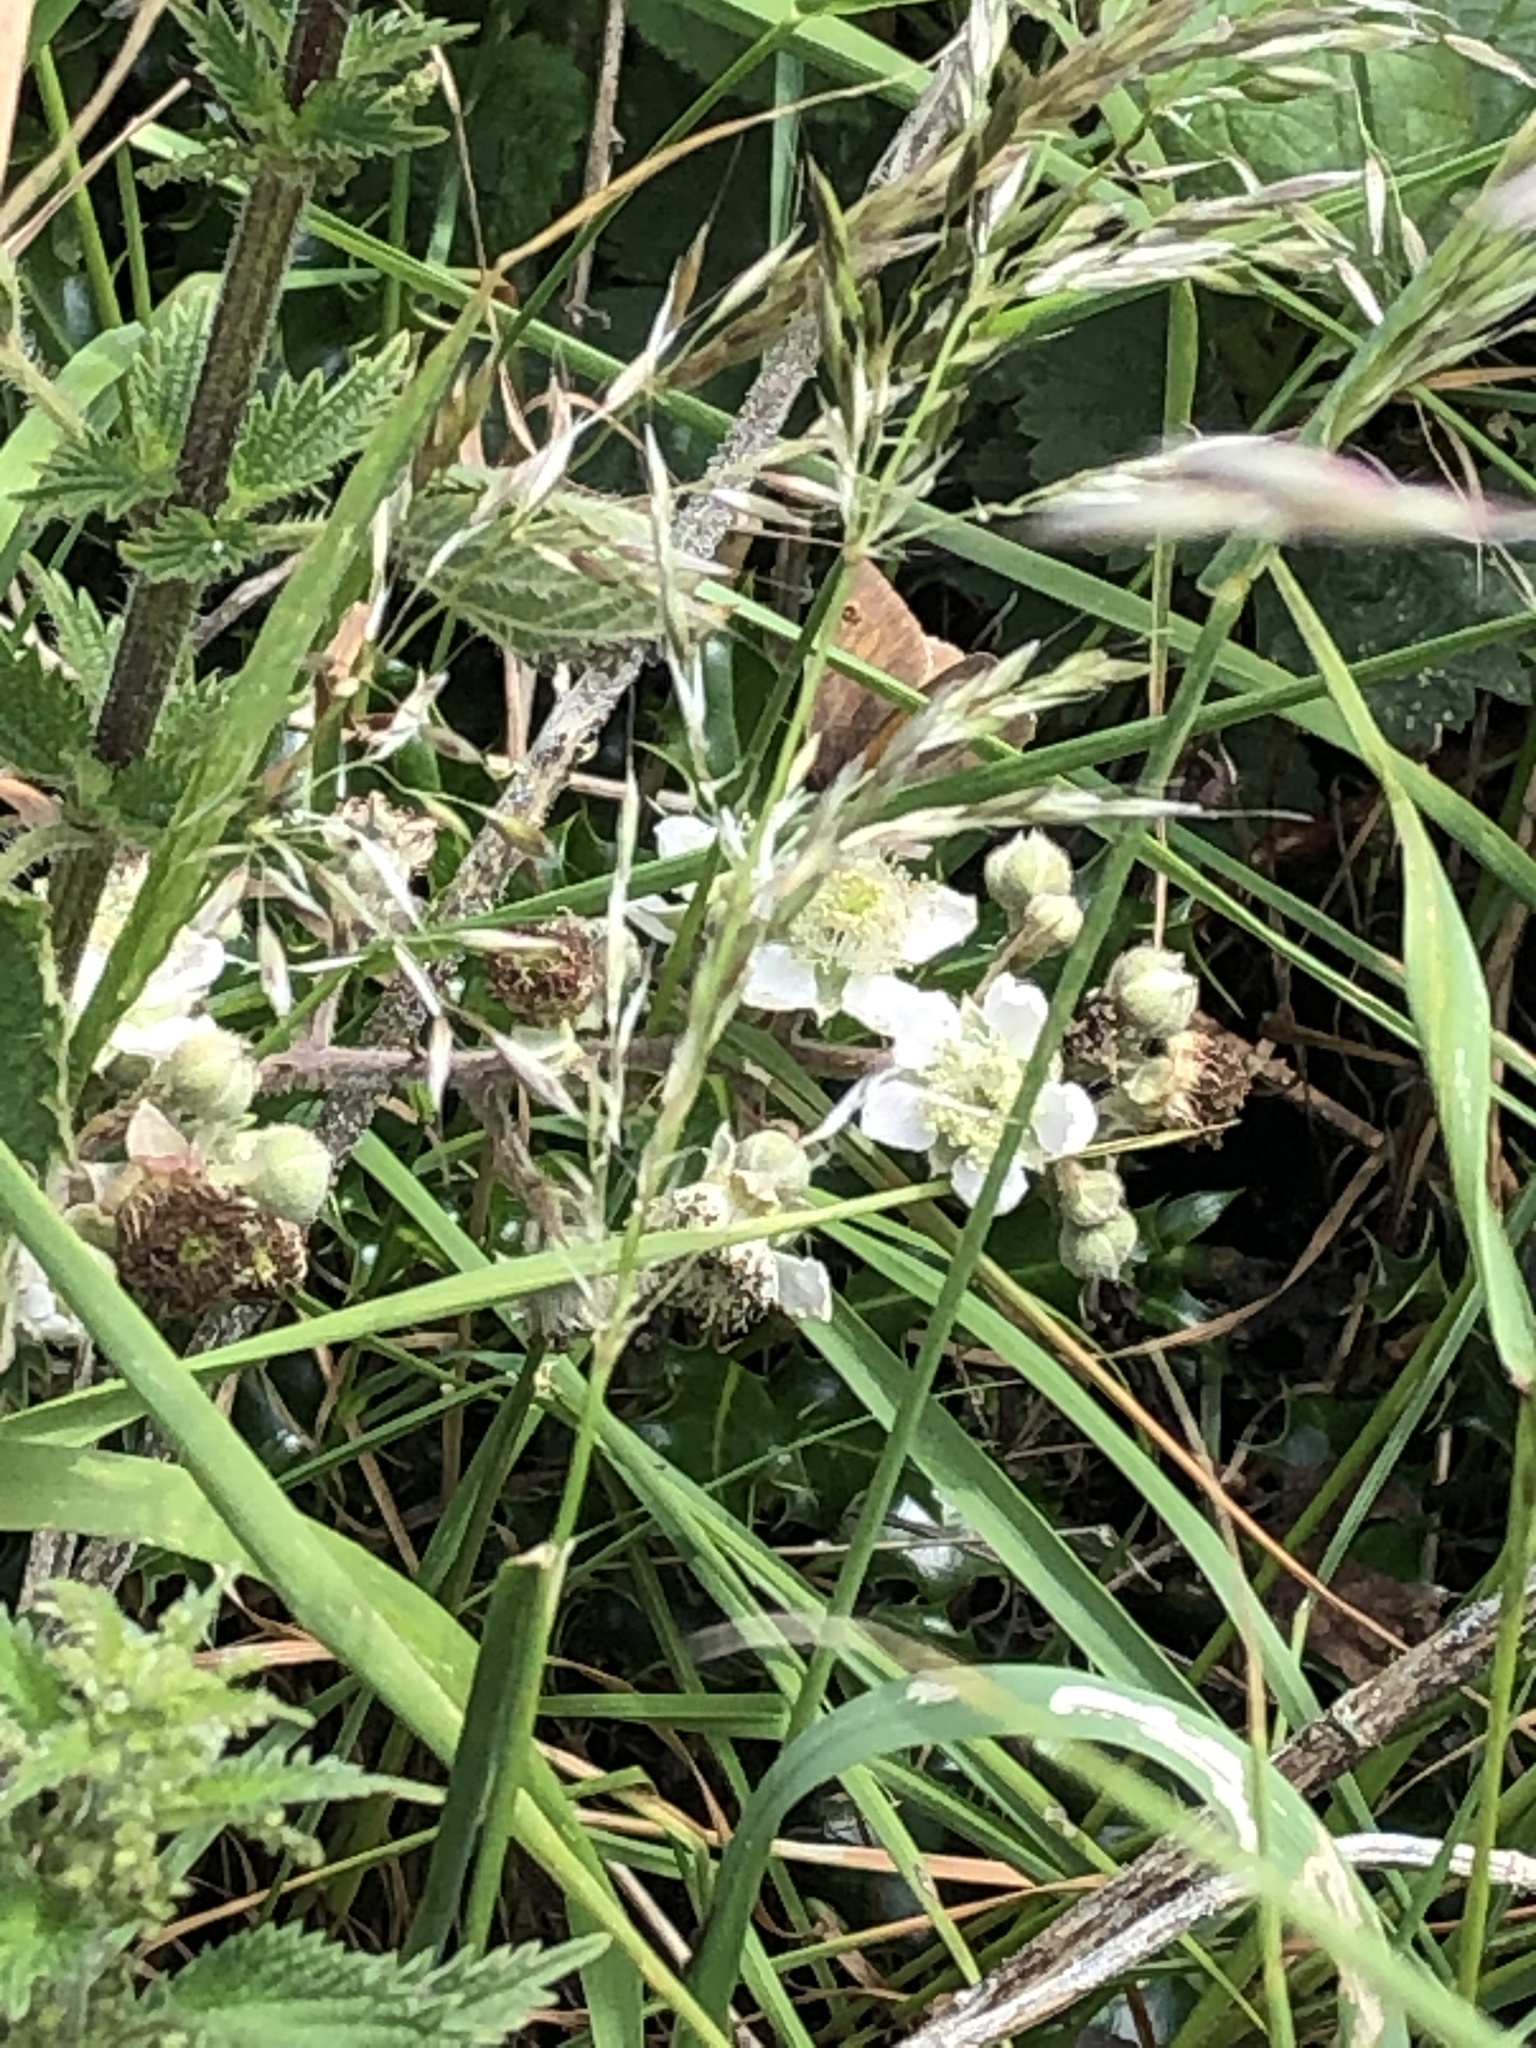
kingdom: Animalia
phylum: Arthropoda
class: Insecta
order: Lepidoptera
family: Nymphalidae
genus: Maniola
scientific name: Maniola jurtina
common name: Meadow brown
